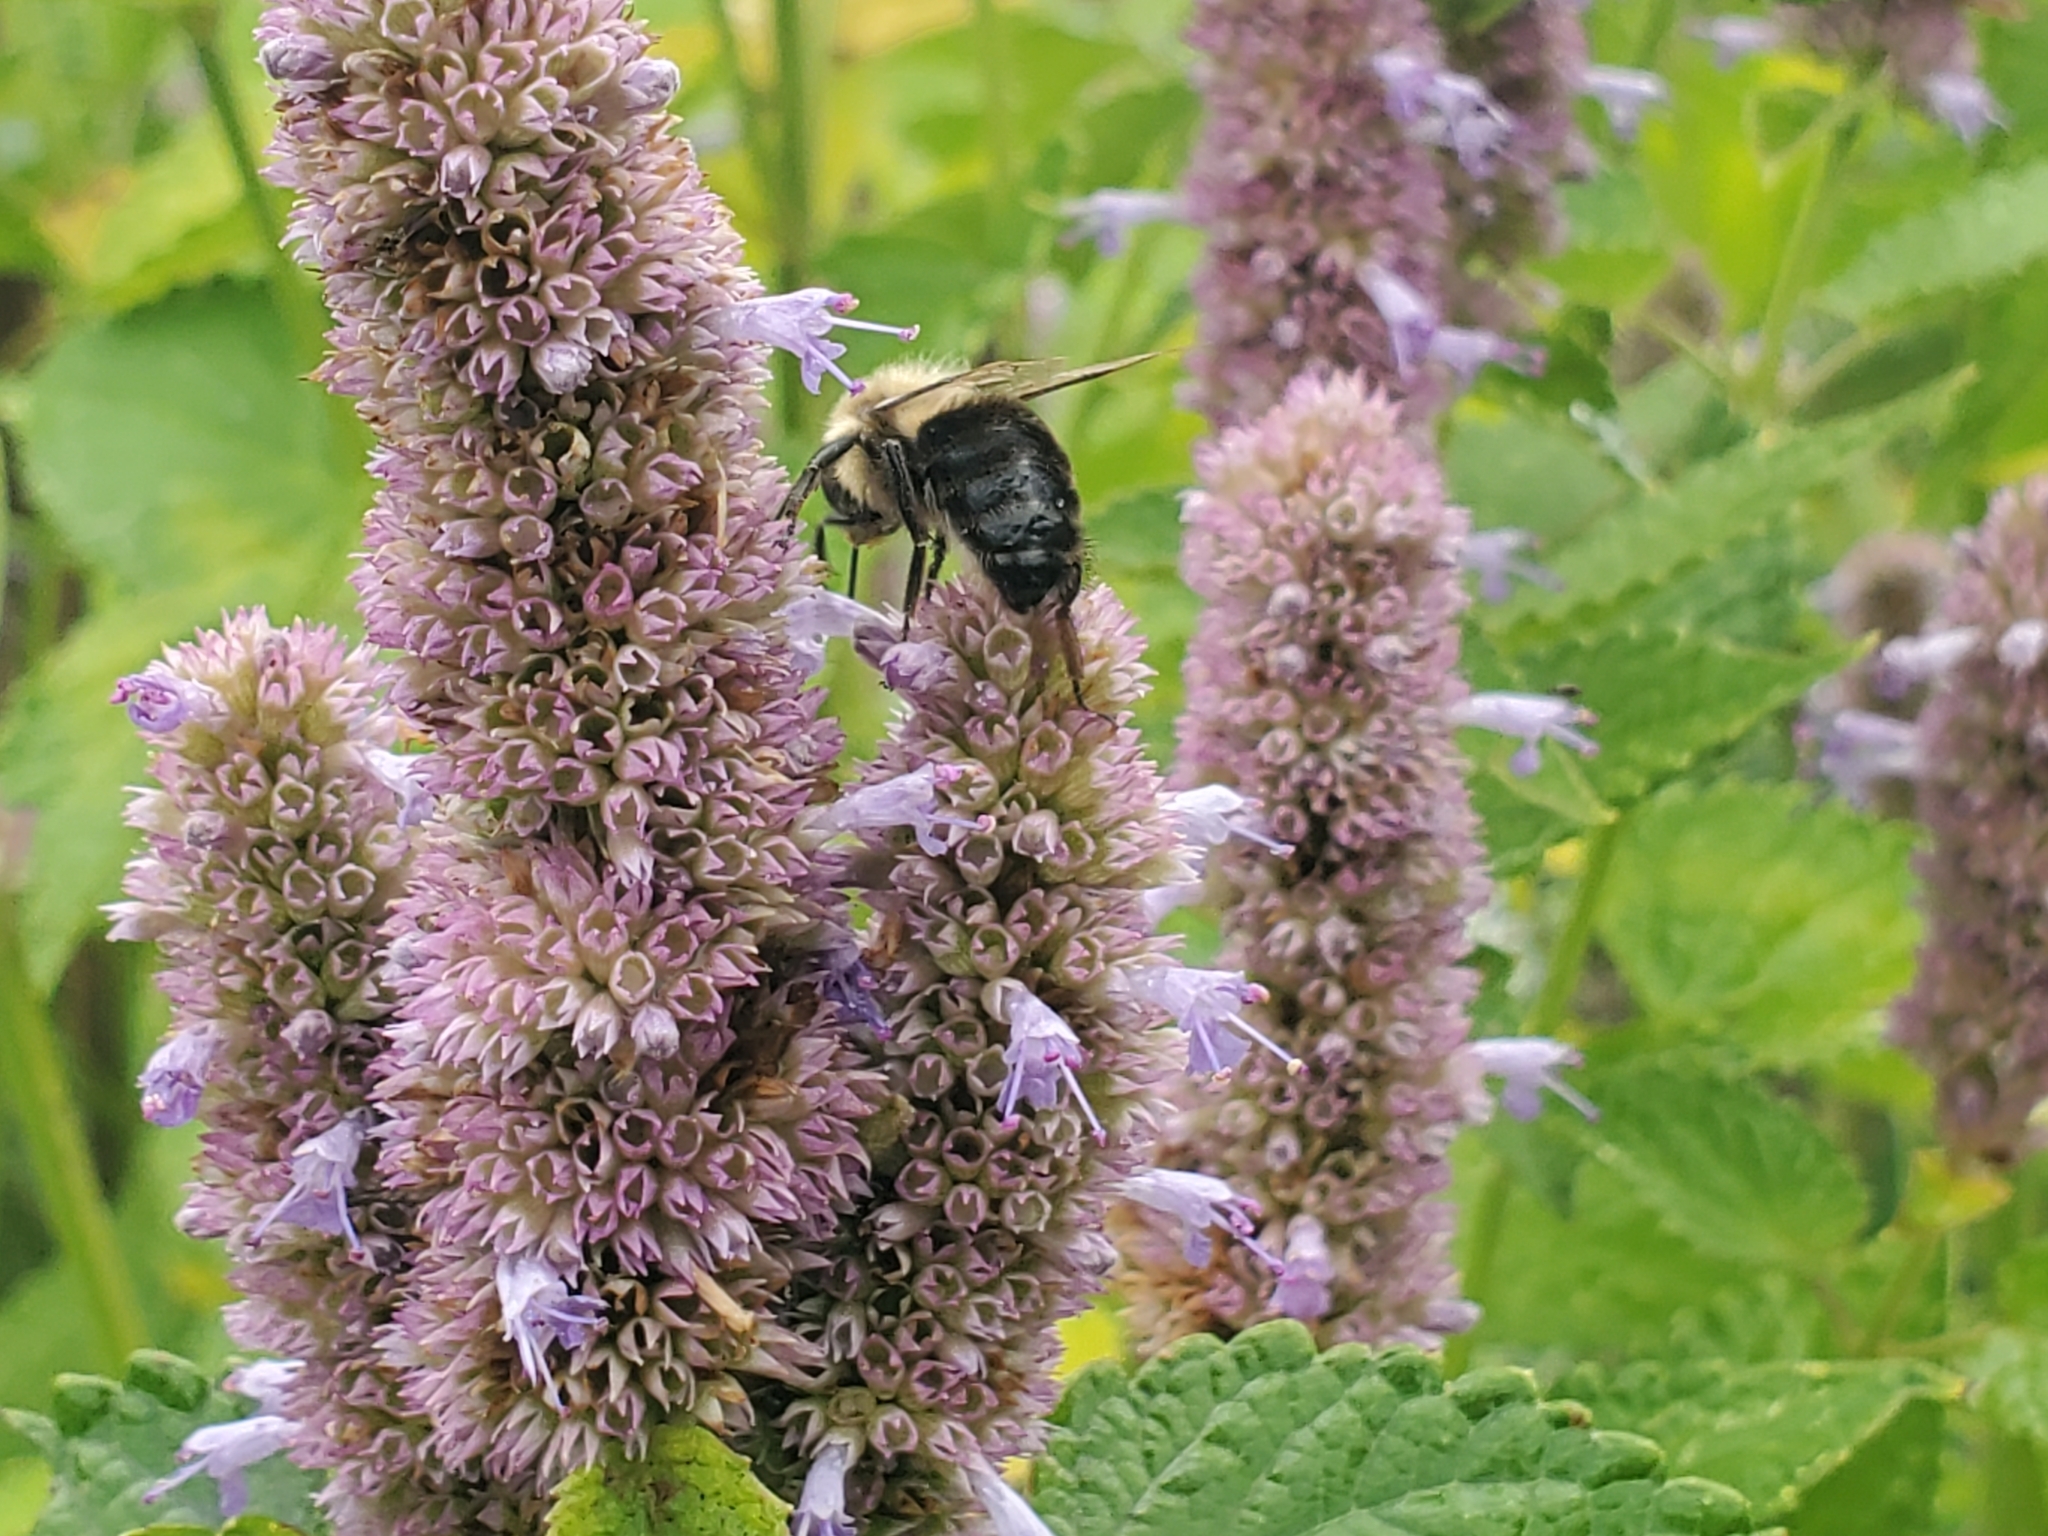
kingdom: Animalia
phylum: Arthropoda
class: Insecta
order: Hymenoptera
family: Apidae
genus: Bombus
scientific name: Bombus impatiens
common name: Common eastern bumble bee
